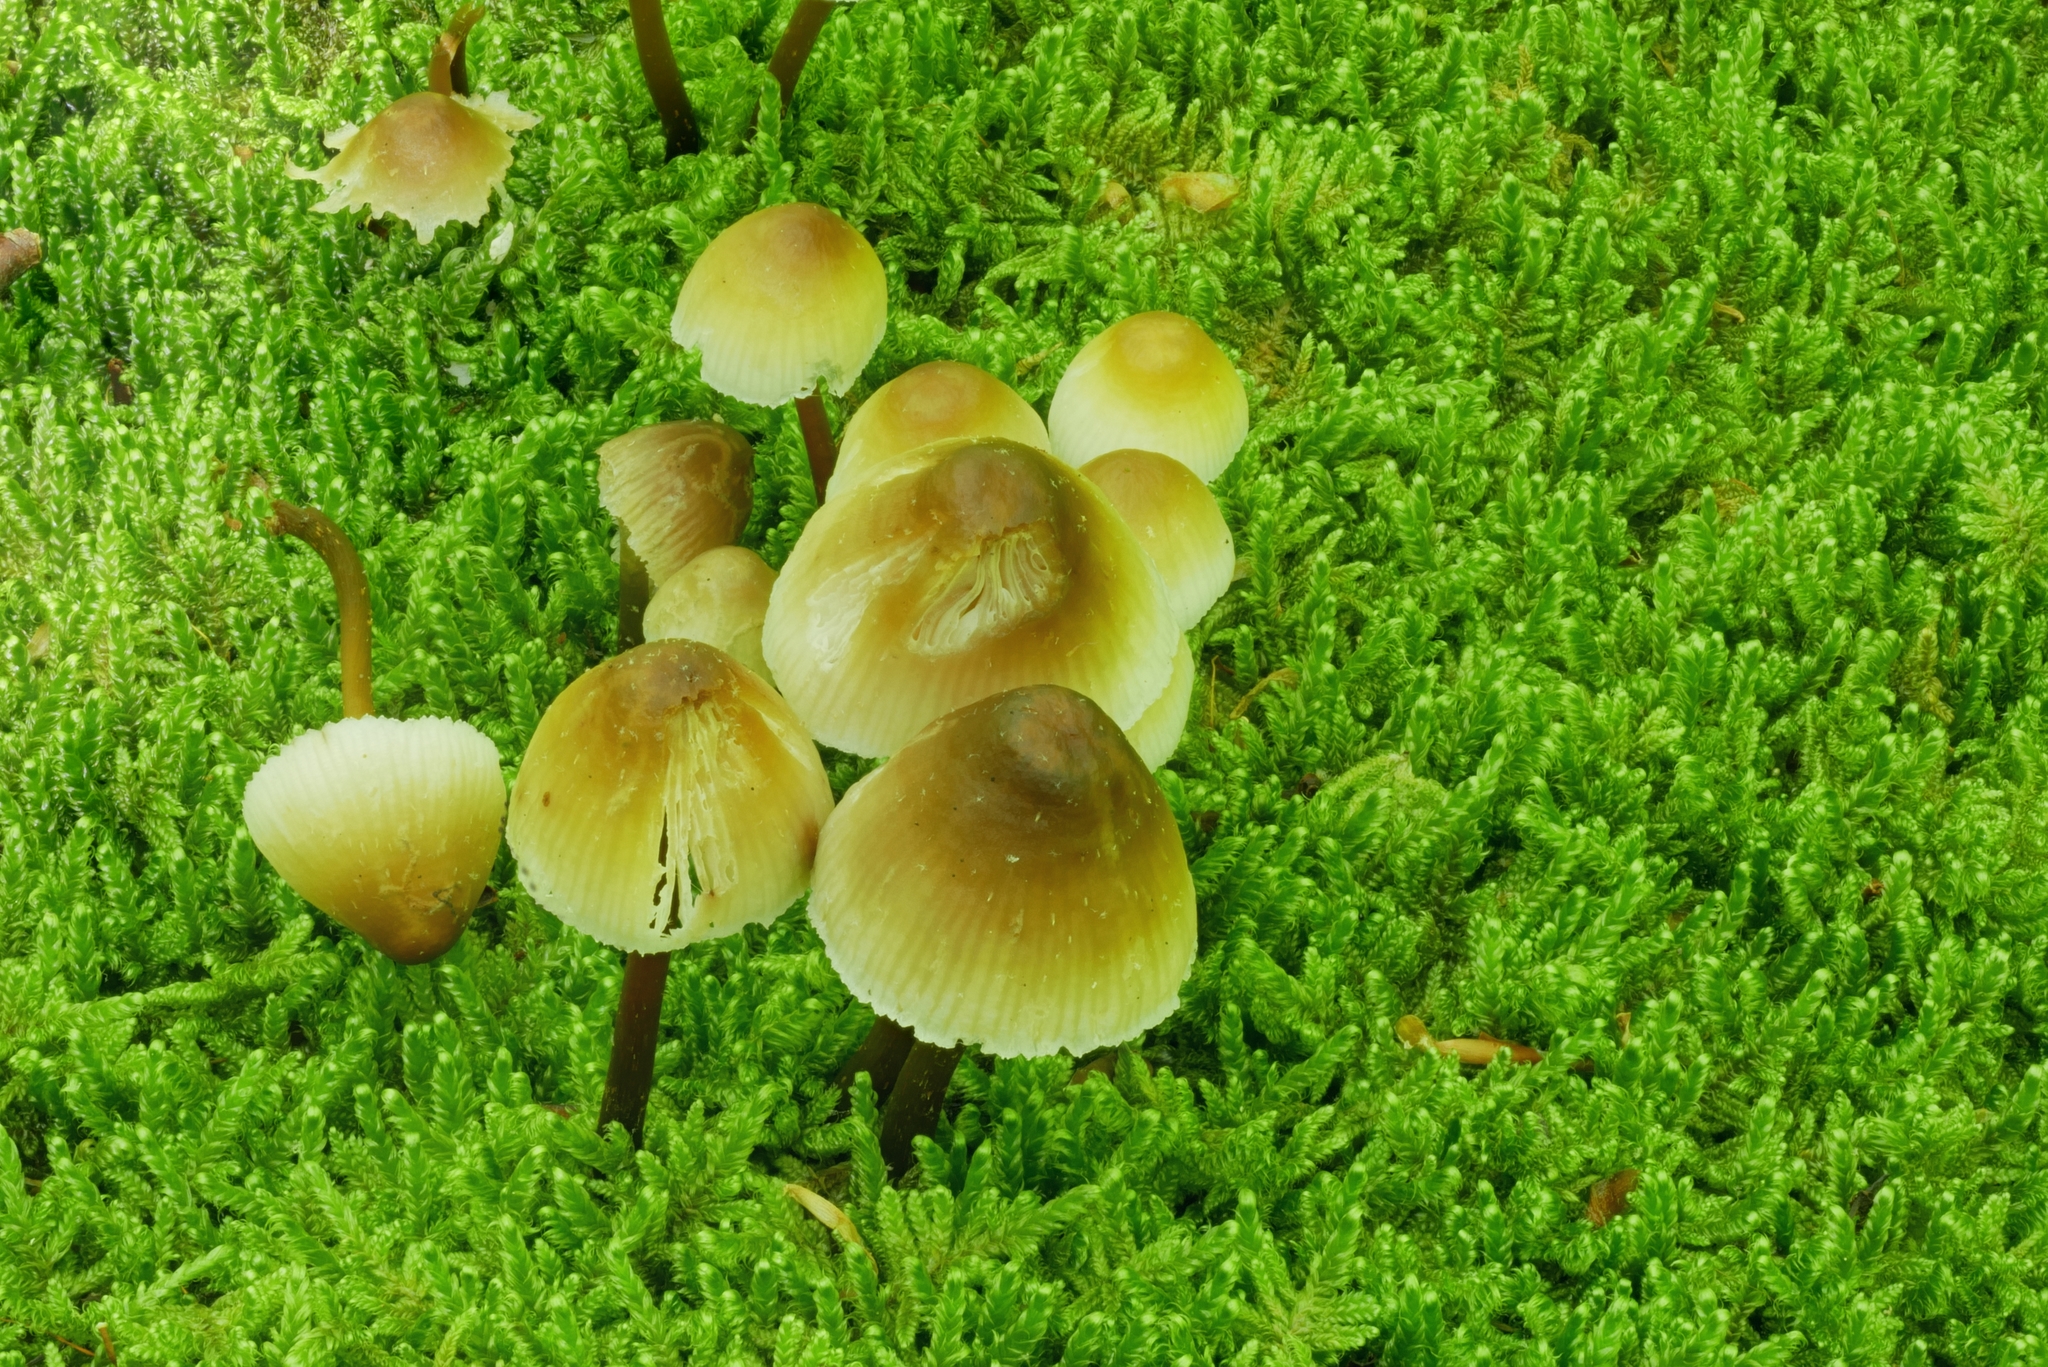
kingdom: Fungi
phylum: Basidiomycota
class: Agaricomycetes
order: Agaricales
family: Mycenaceae
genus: Mycena
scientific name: Mycena galericulata
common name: Bonnet mycena
